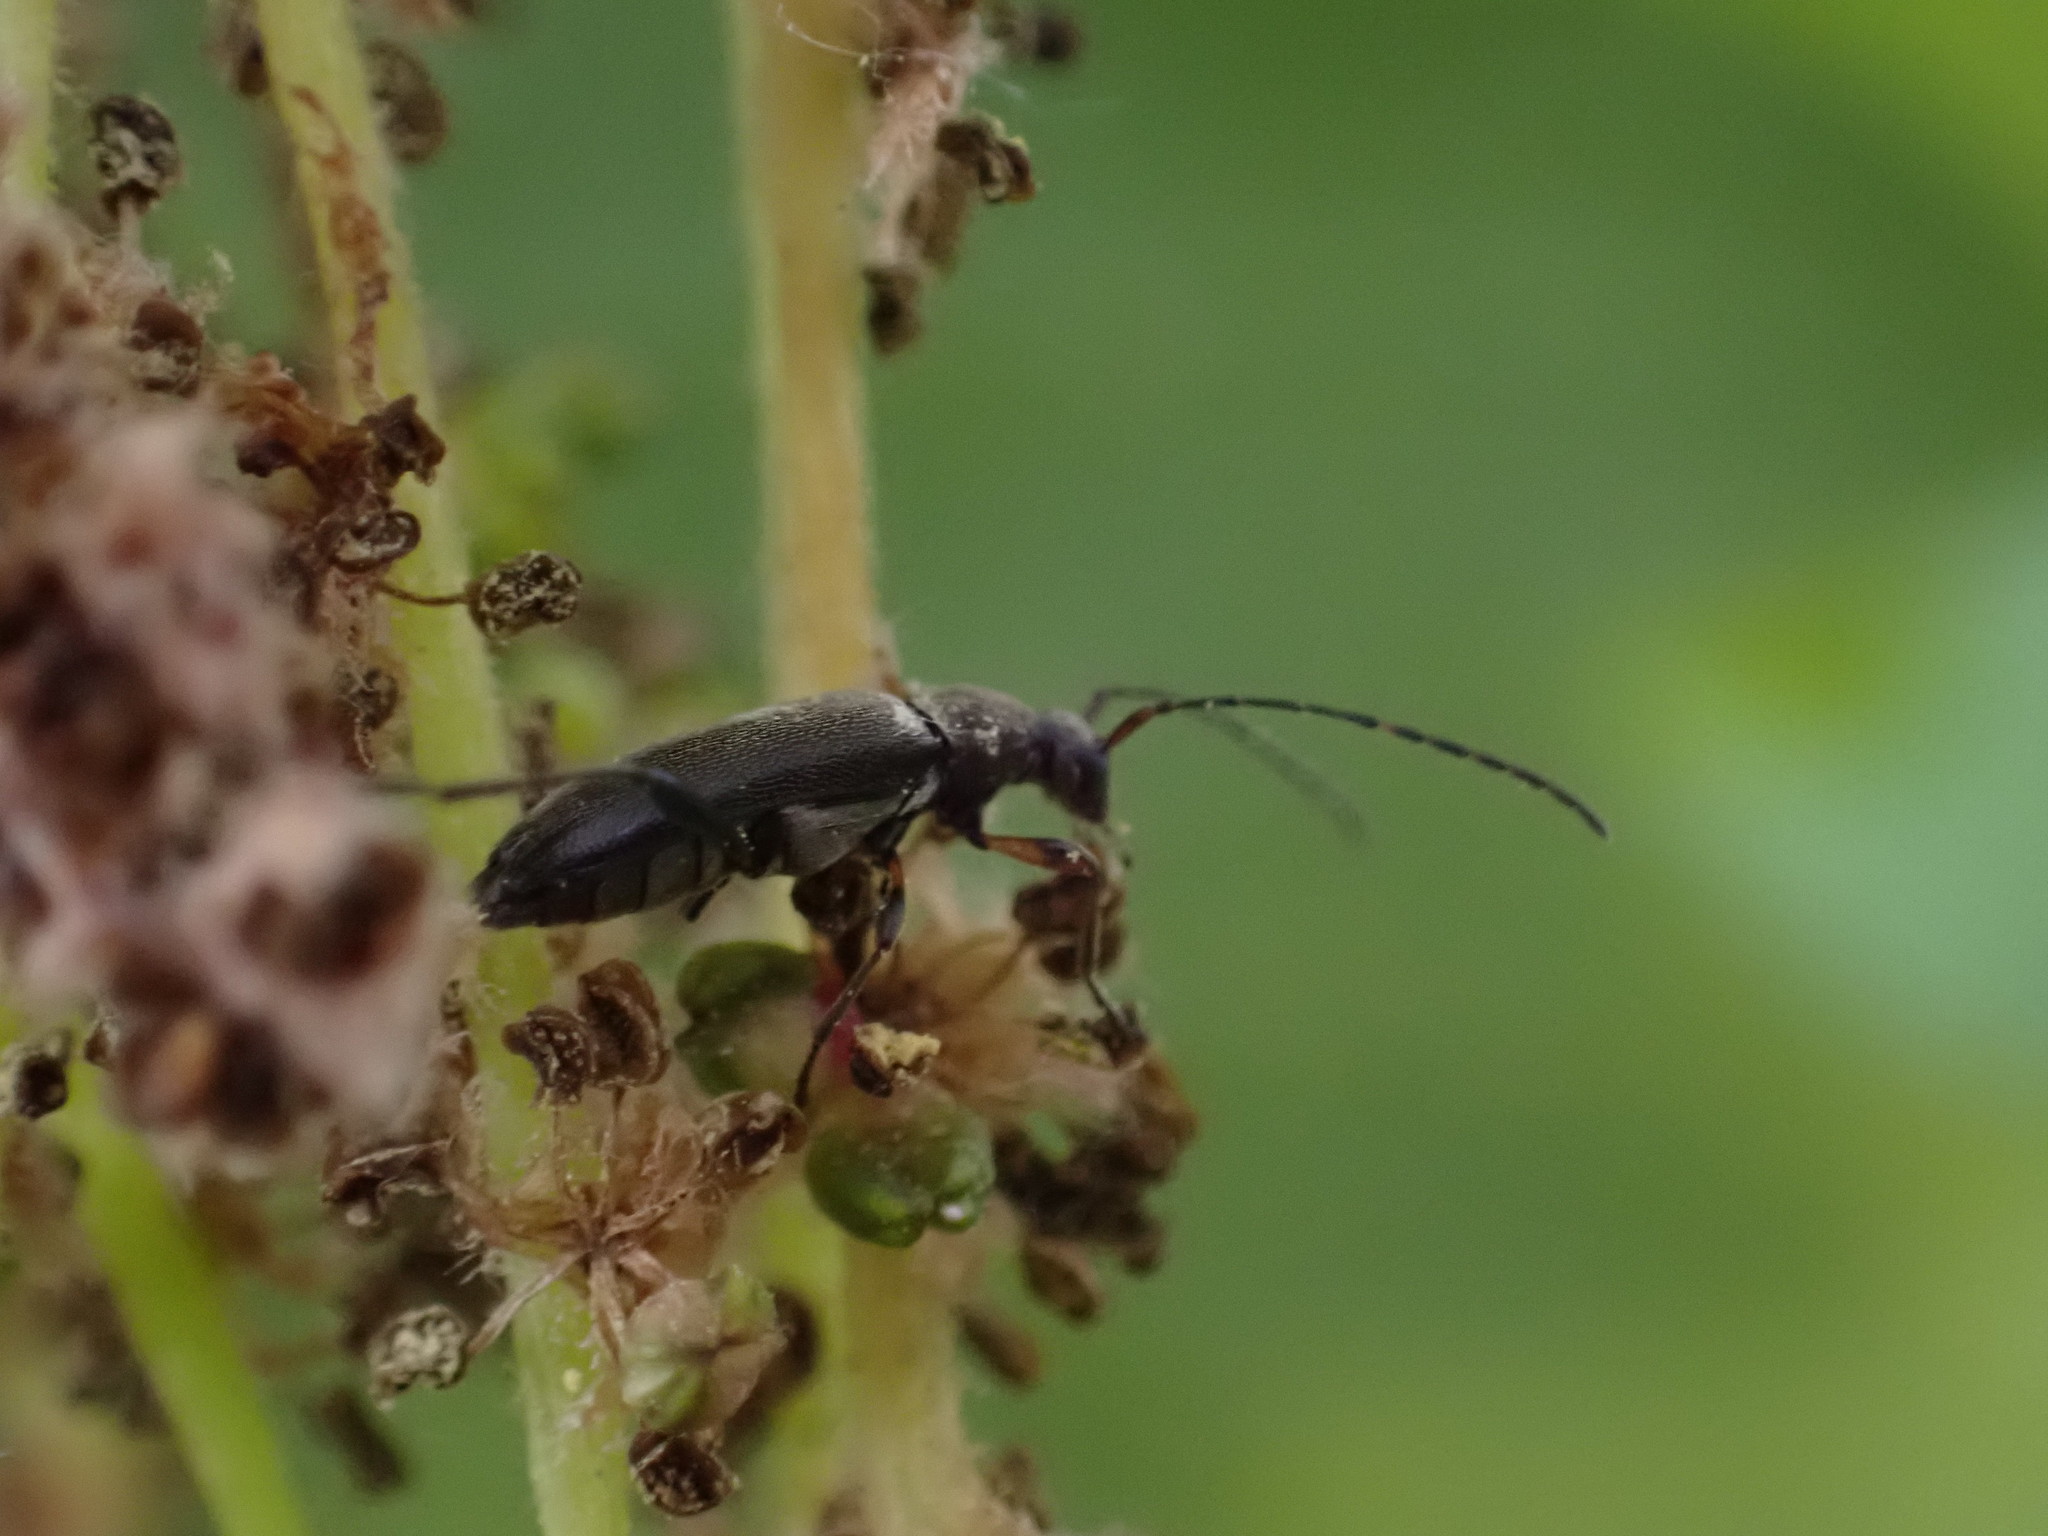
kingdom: Animalia
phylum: Arthropoda
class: Insecta
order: Coleoptera
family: Cerambycidae
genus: Grammoptera
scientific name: Grammoptera ruficornis
